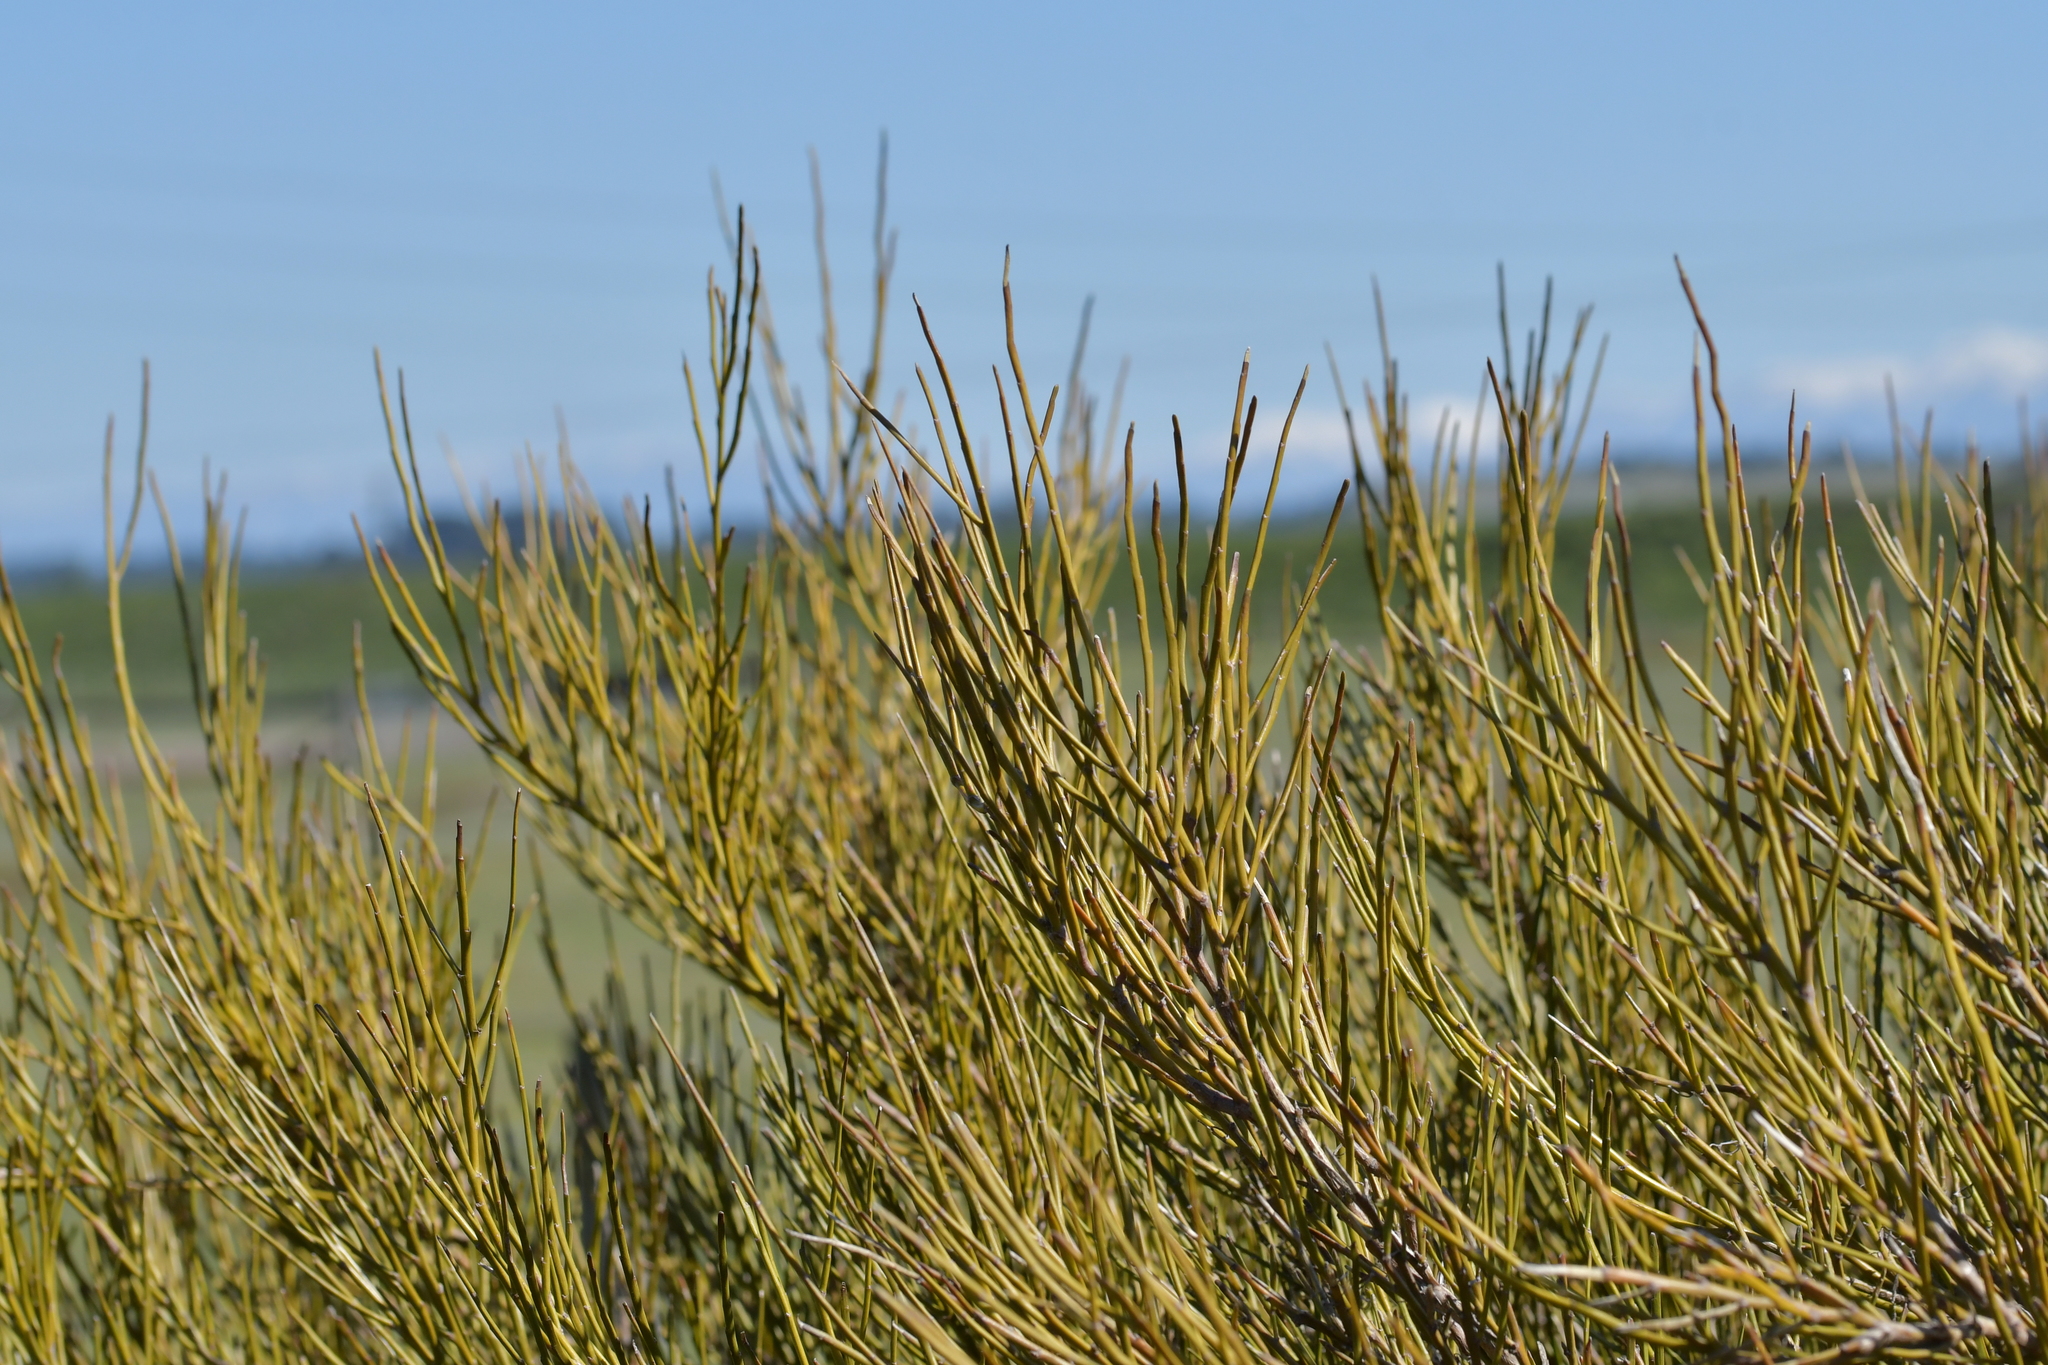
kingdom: Plantae
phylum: Tracheophyta
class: Magnoliopsida
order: Fabales
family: Fabaceae
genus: Carmichaelia
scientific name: Carmichaelia australis
